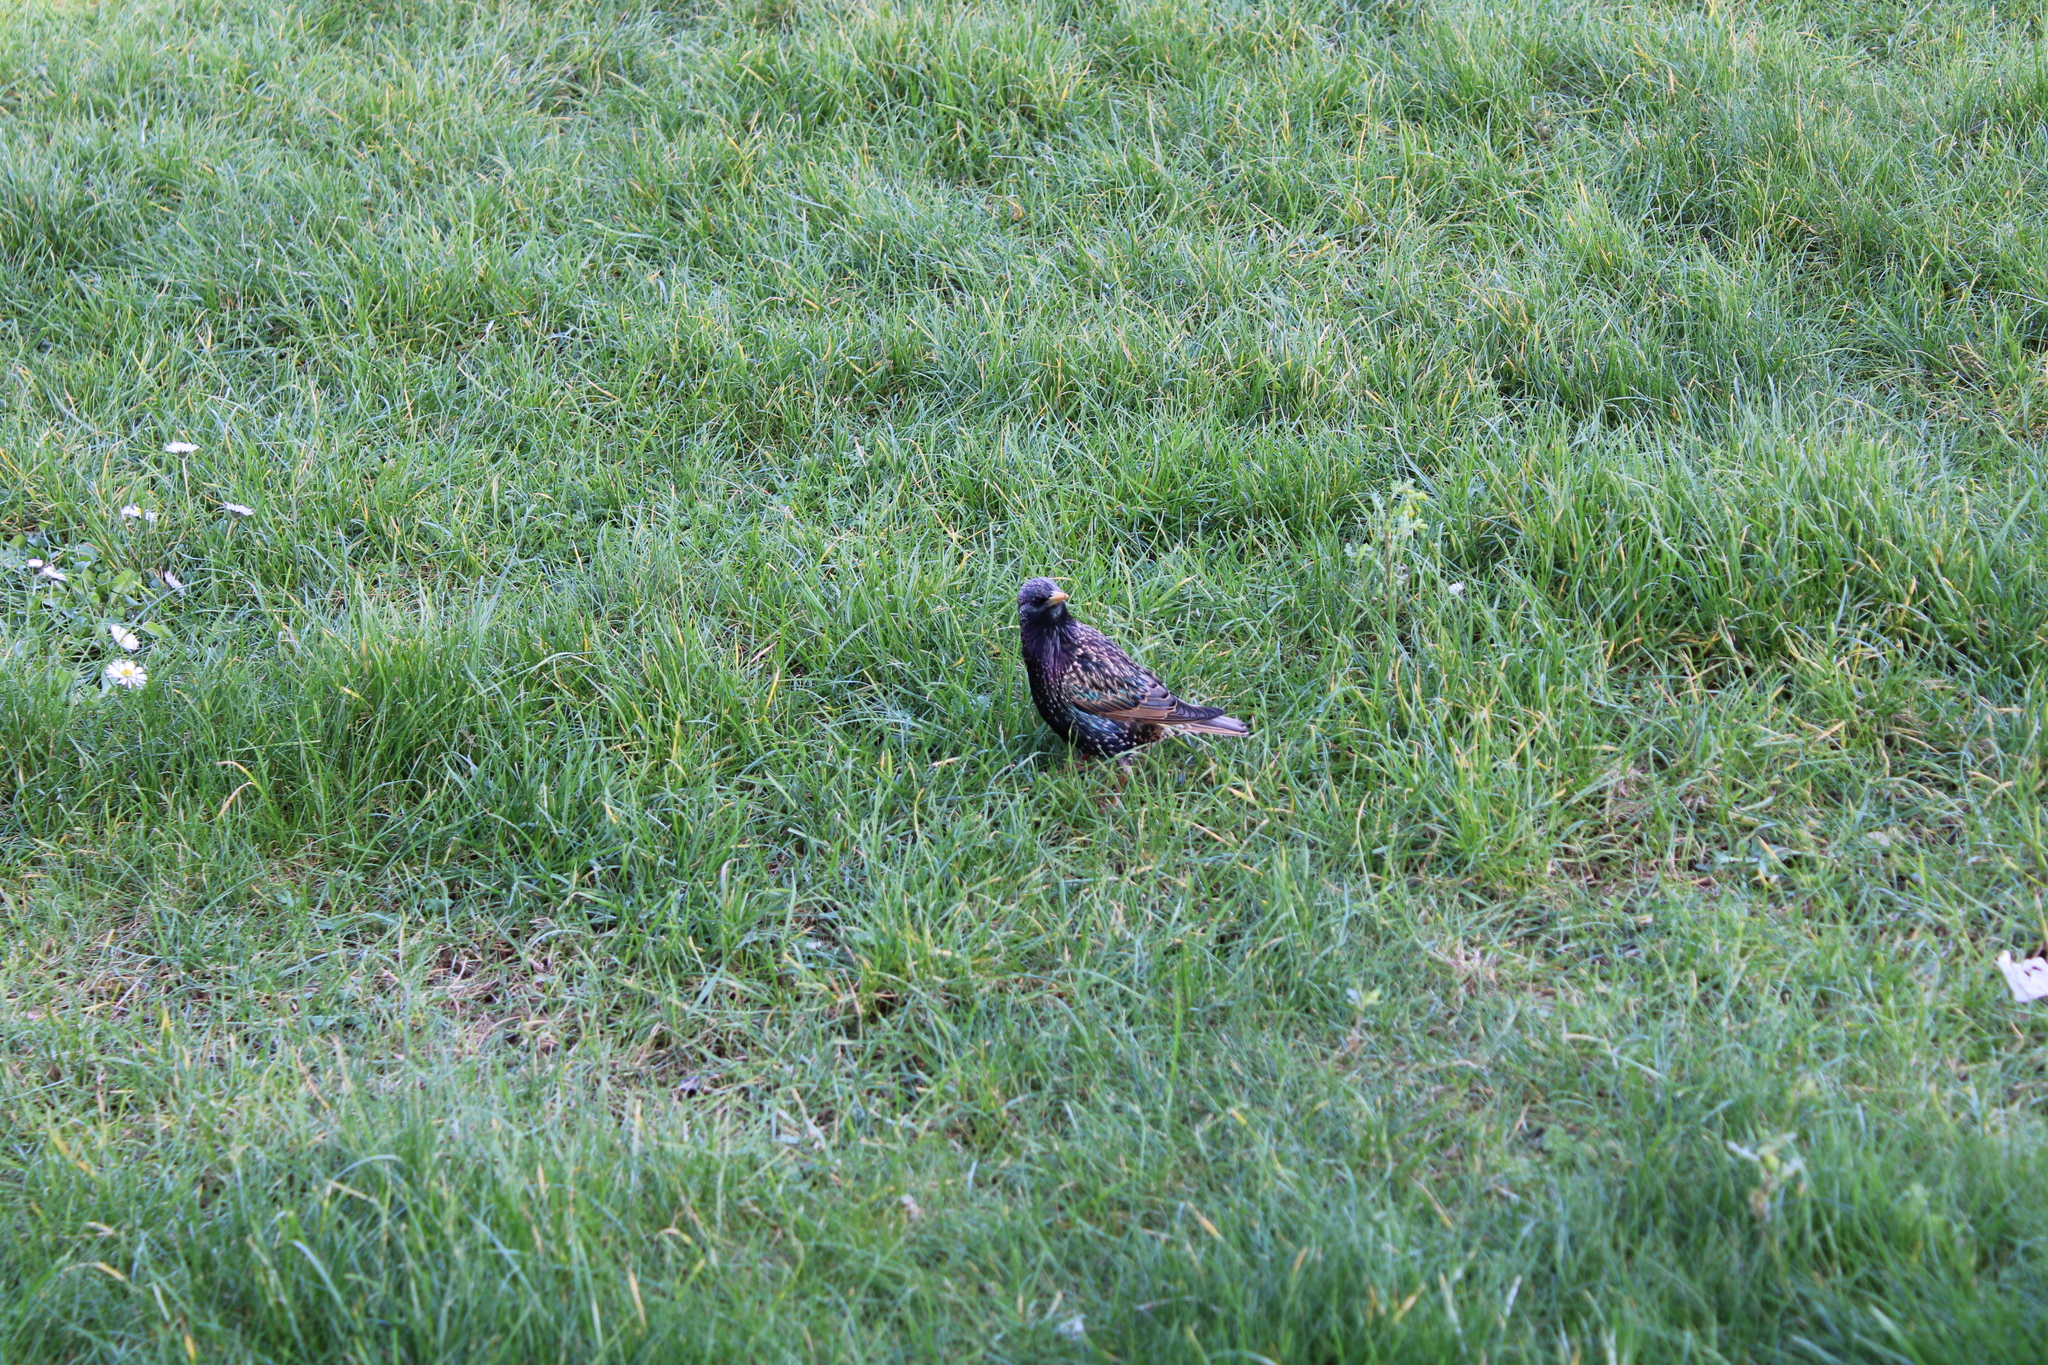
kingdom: Animalia
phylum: Chordata
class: Aves
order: Passeriformes
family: Sturnidae
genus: Sturnus
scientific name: Sturnus vulgaris
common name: Common starling
